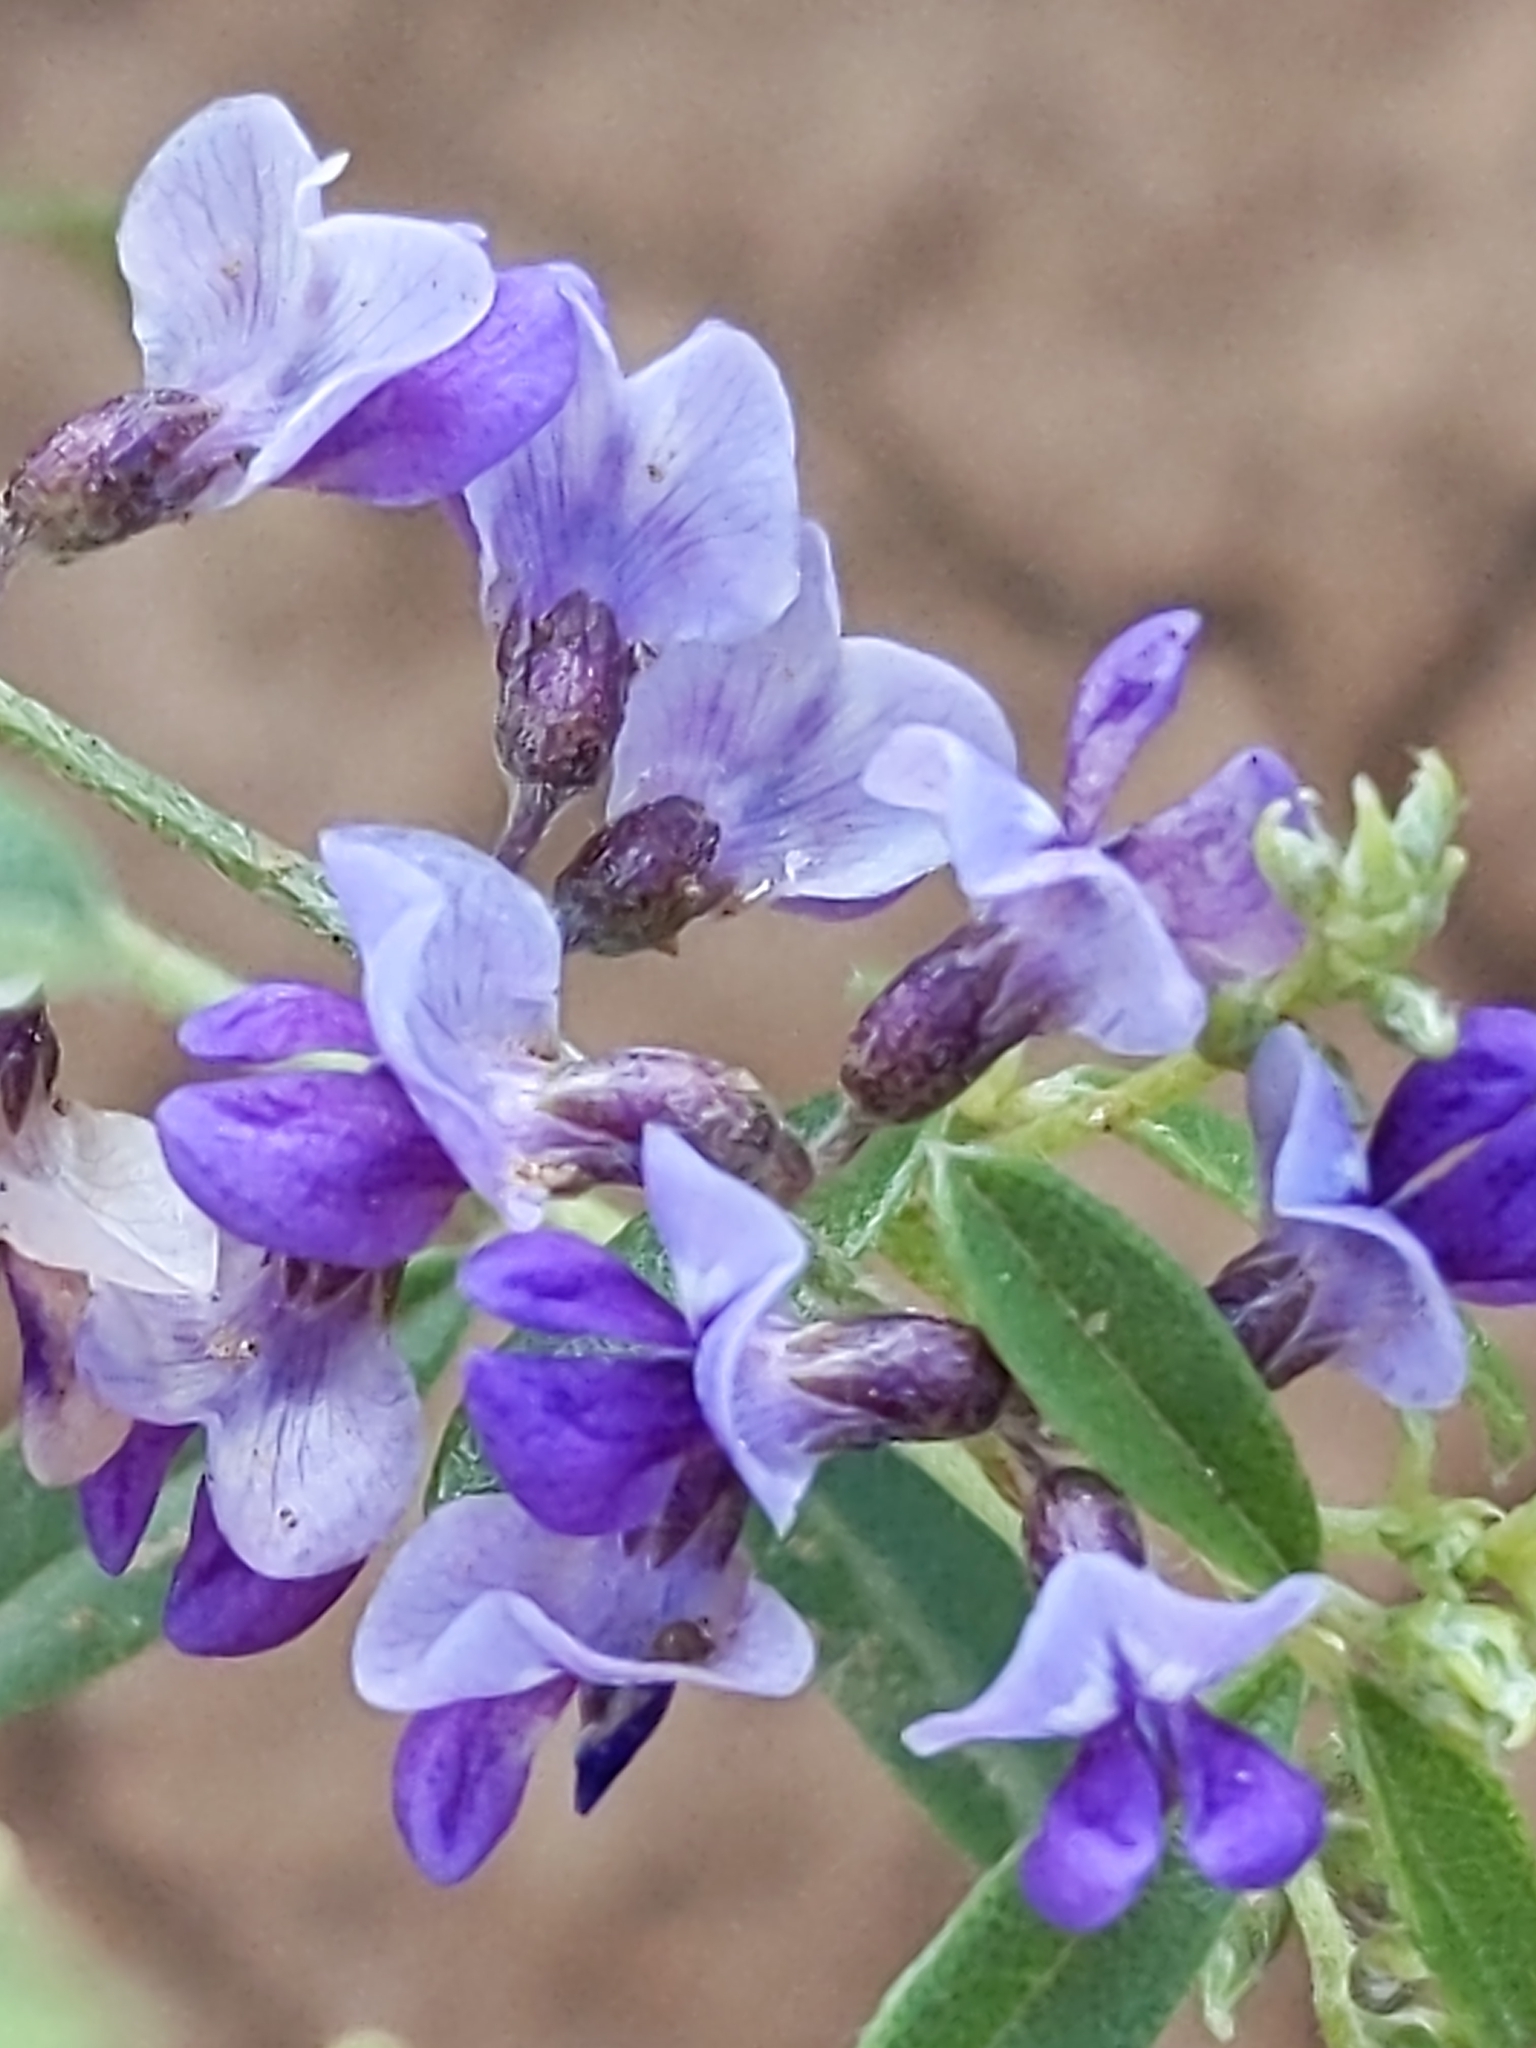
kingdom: Plantae
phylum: Tracheophyta
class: Magnoliopsida
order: Fabales
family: Fabaceae
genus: Pediomelum
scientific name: Pediomelum tenuiflorum
